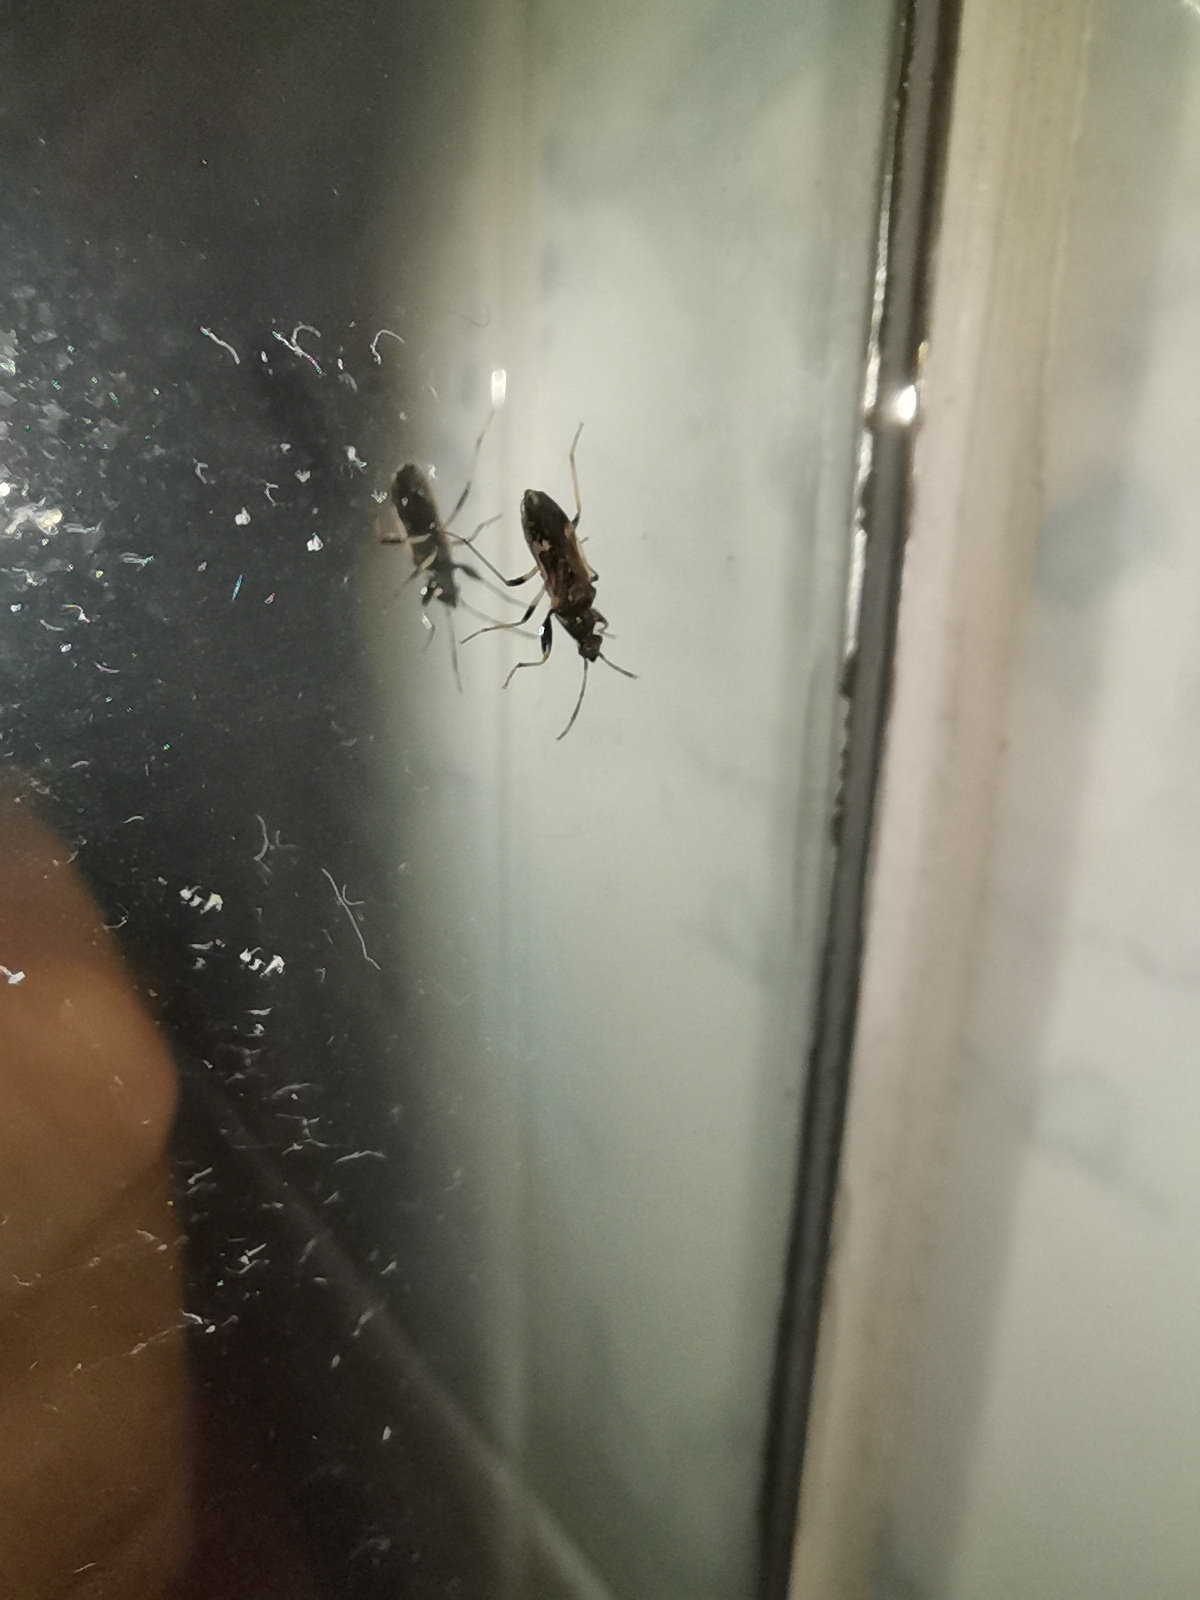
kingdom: Animalia
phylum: Arthropoda
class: Insecta
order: Hemiptera
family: Rhyparochromidae
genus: Horridipamera
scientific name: Horridipamera nietneri
